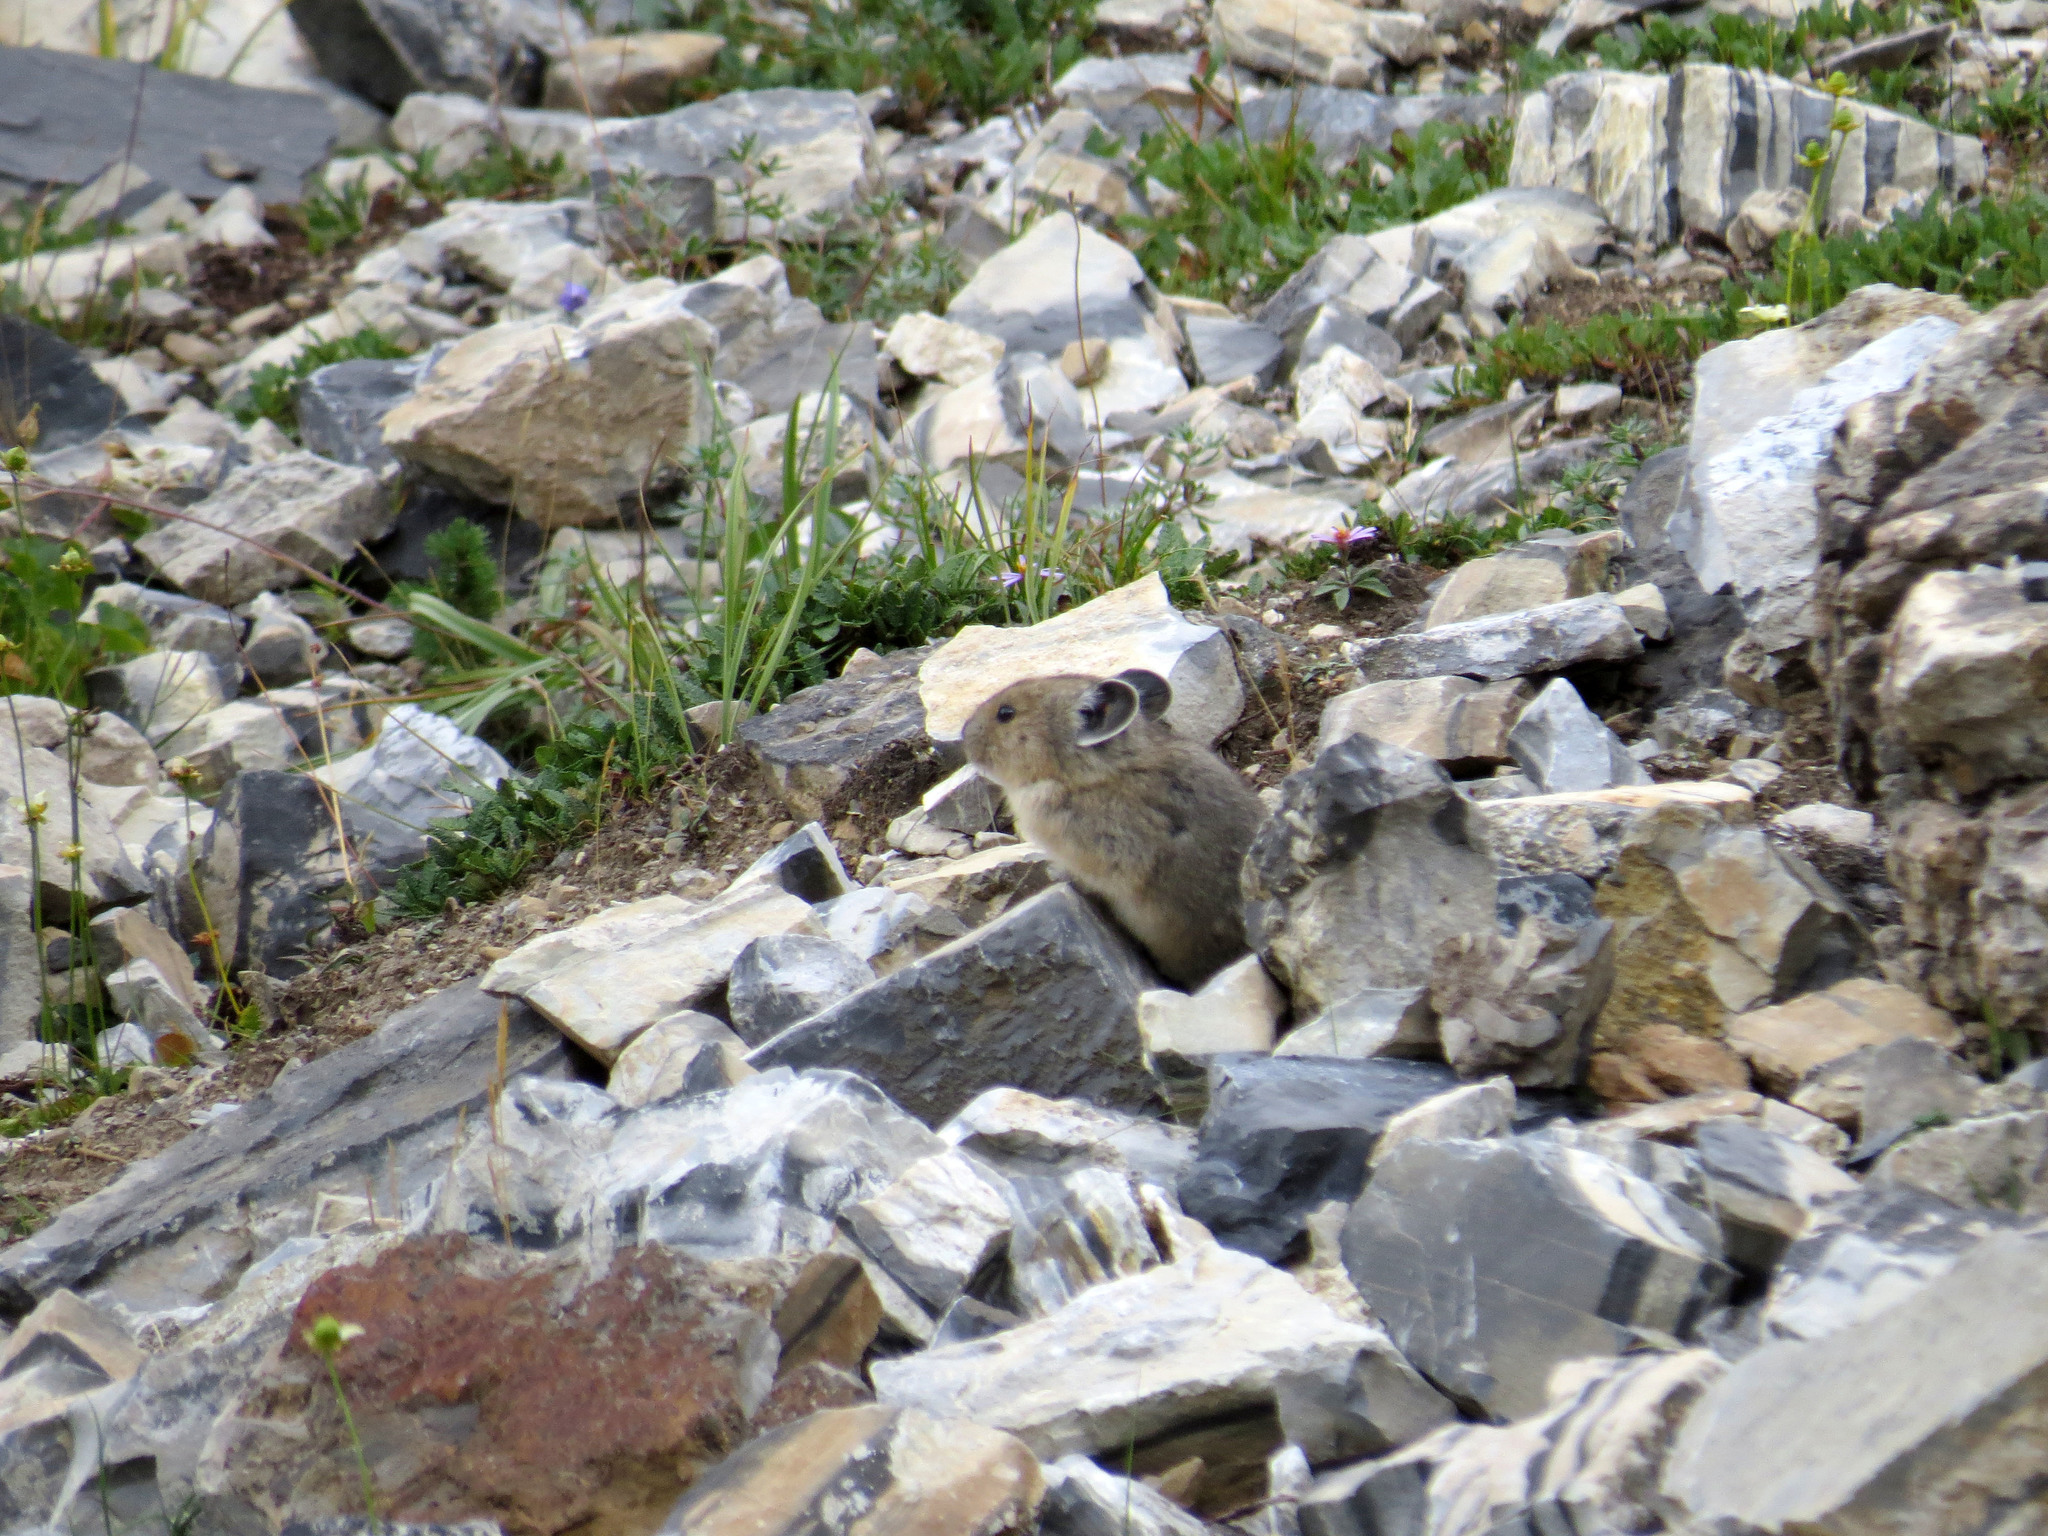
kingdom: Animalia
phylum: Chordata
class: Mammalia
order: Lagomorpha
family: Ochotonidae
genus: Ochotona
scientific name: Ochotona princeps
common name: American pika
